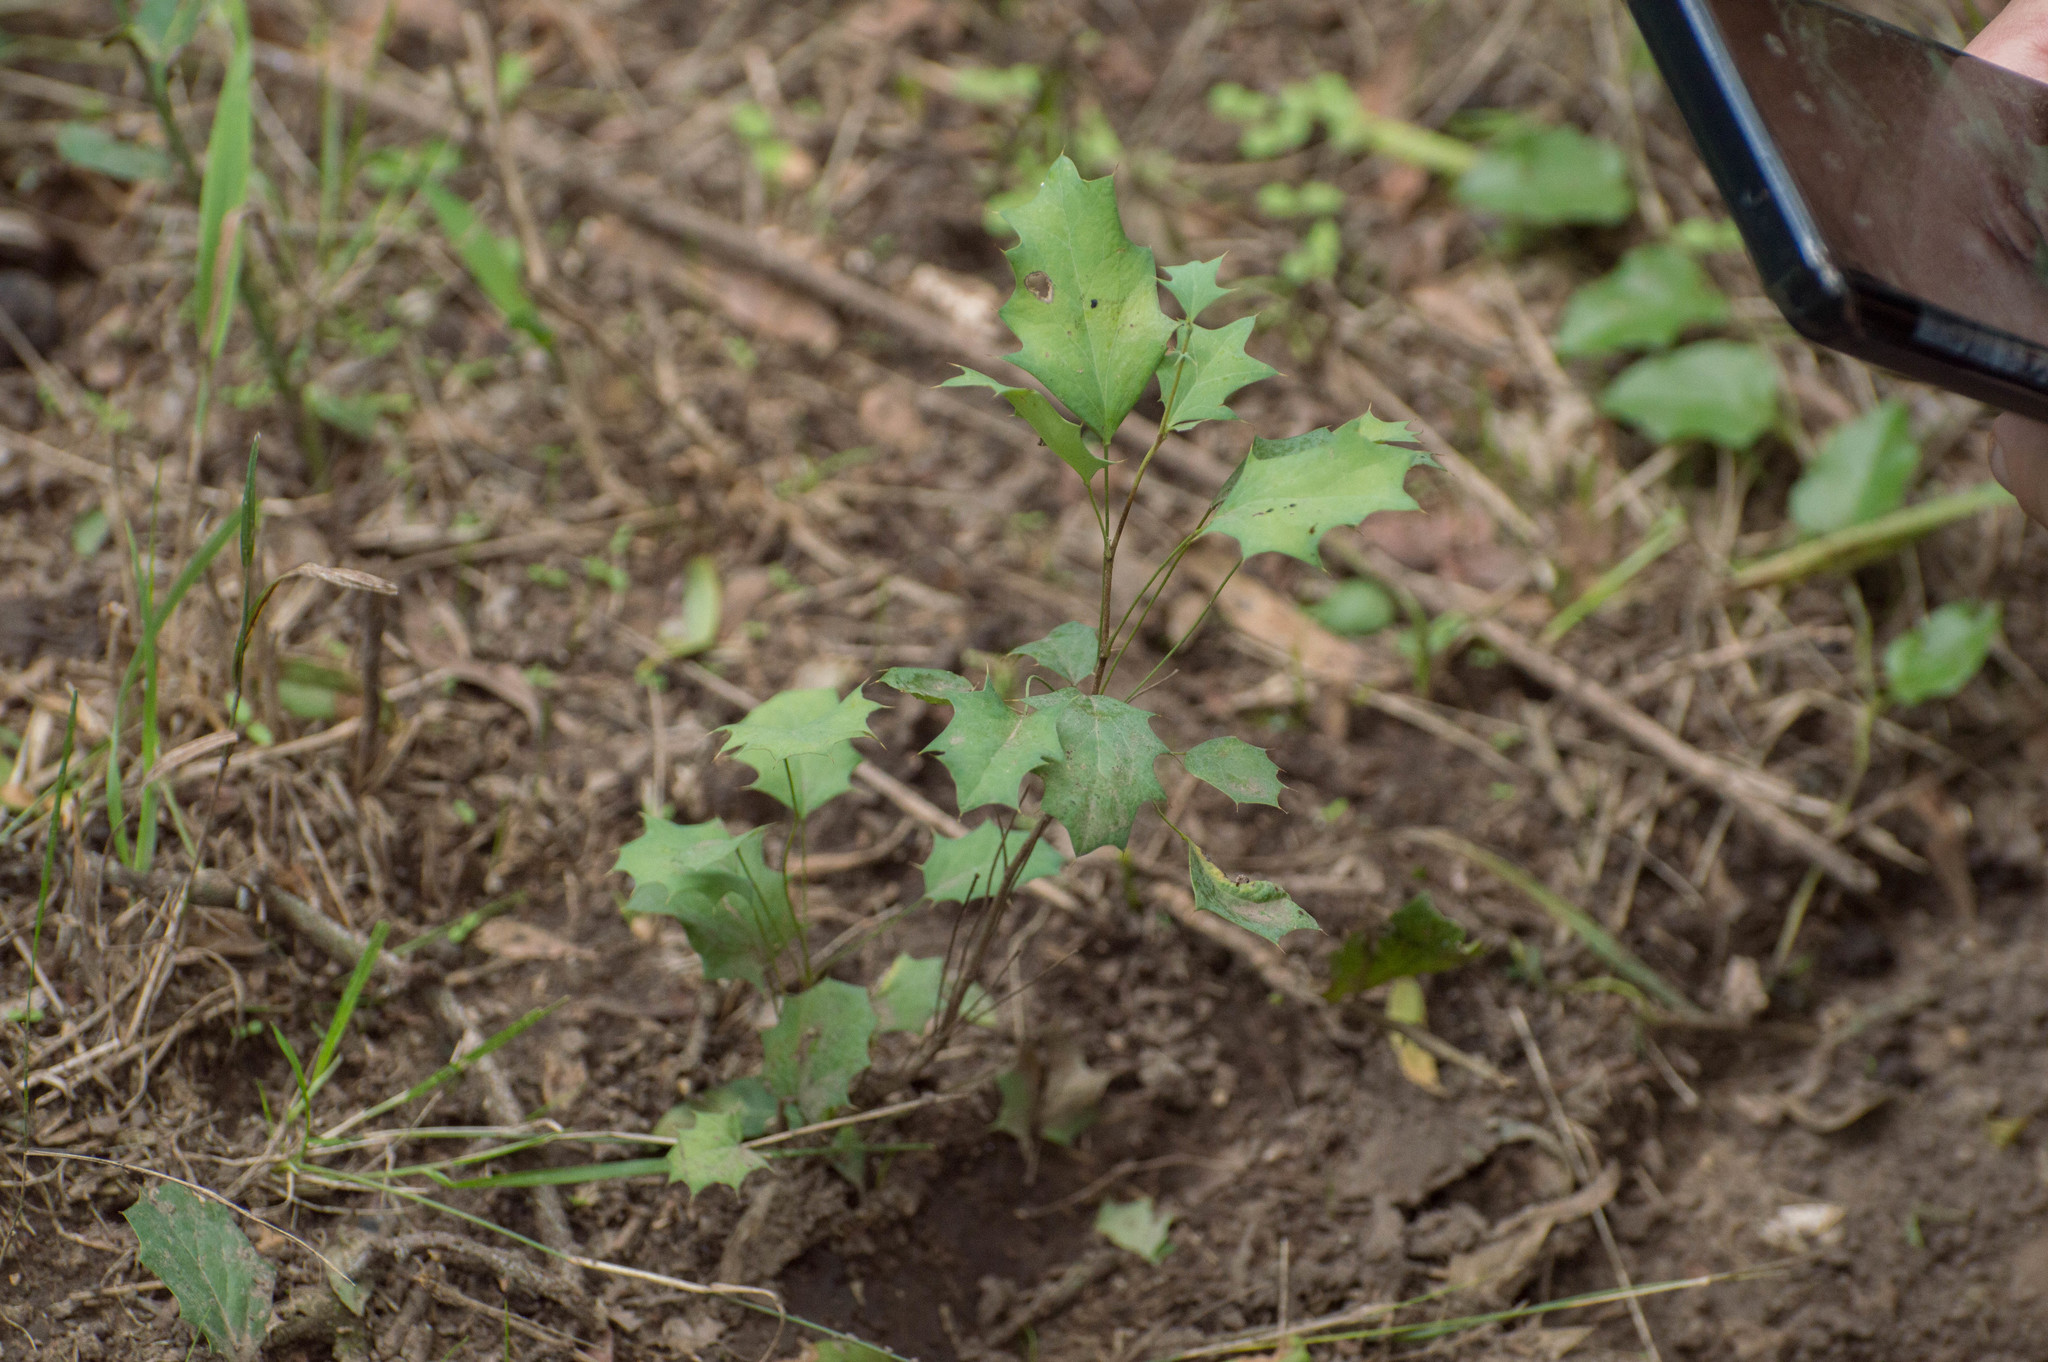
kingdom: Plantae
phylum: Tracheophyta
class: Magnoliopsida
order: Ranunculales
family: Berberidaceae
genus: Berberis
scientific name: Berberis ruscifolia
